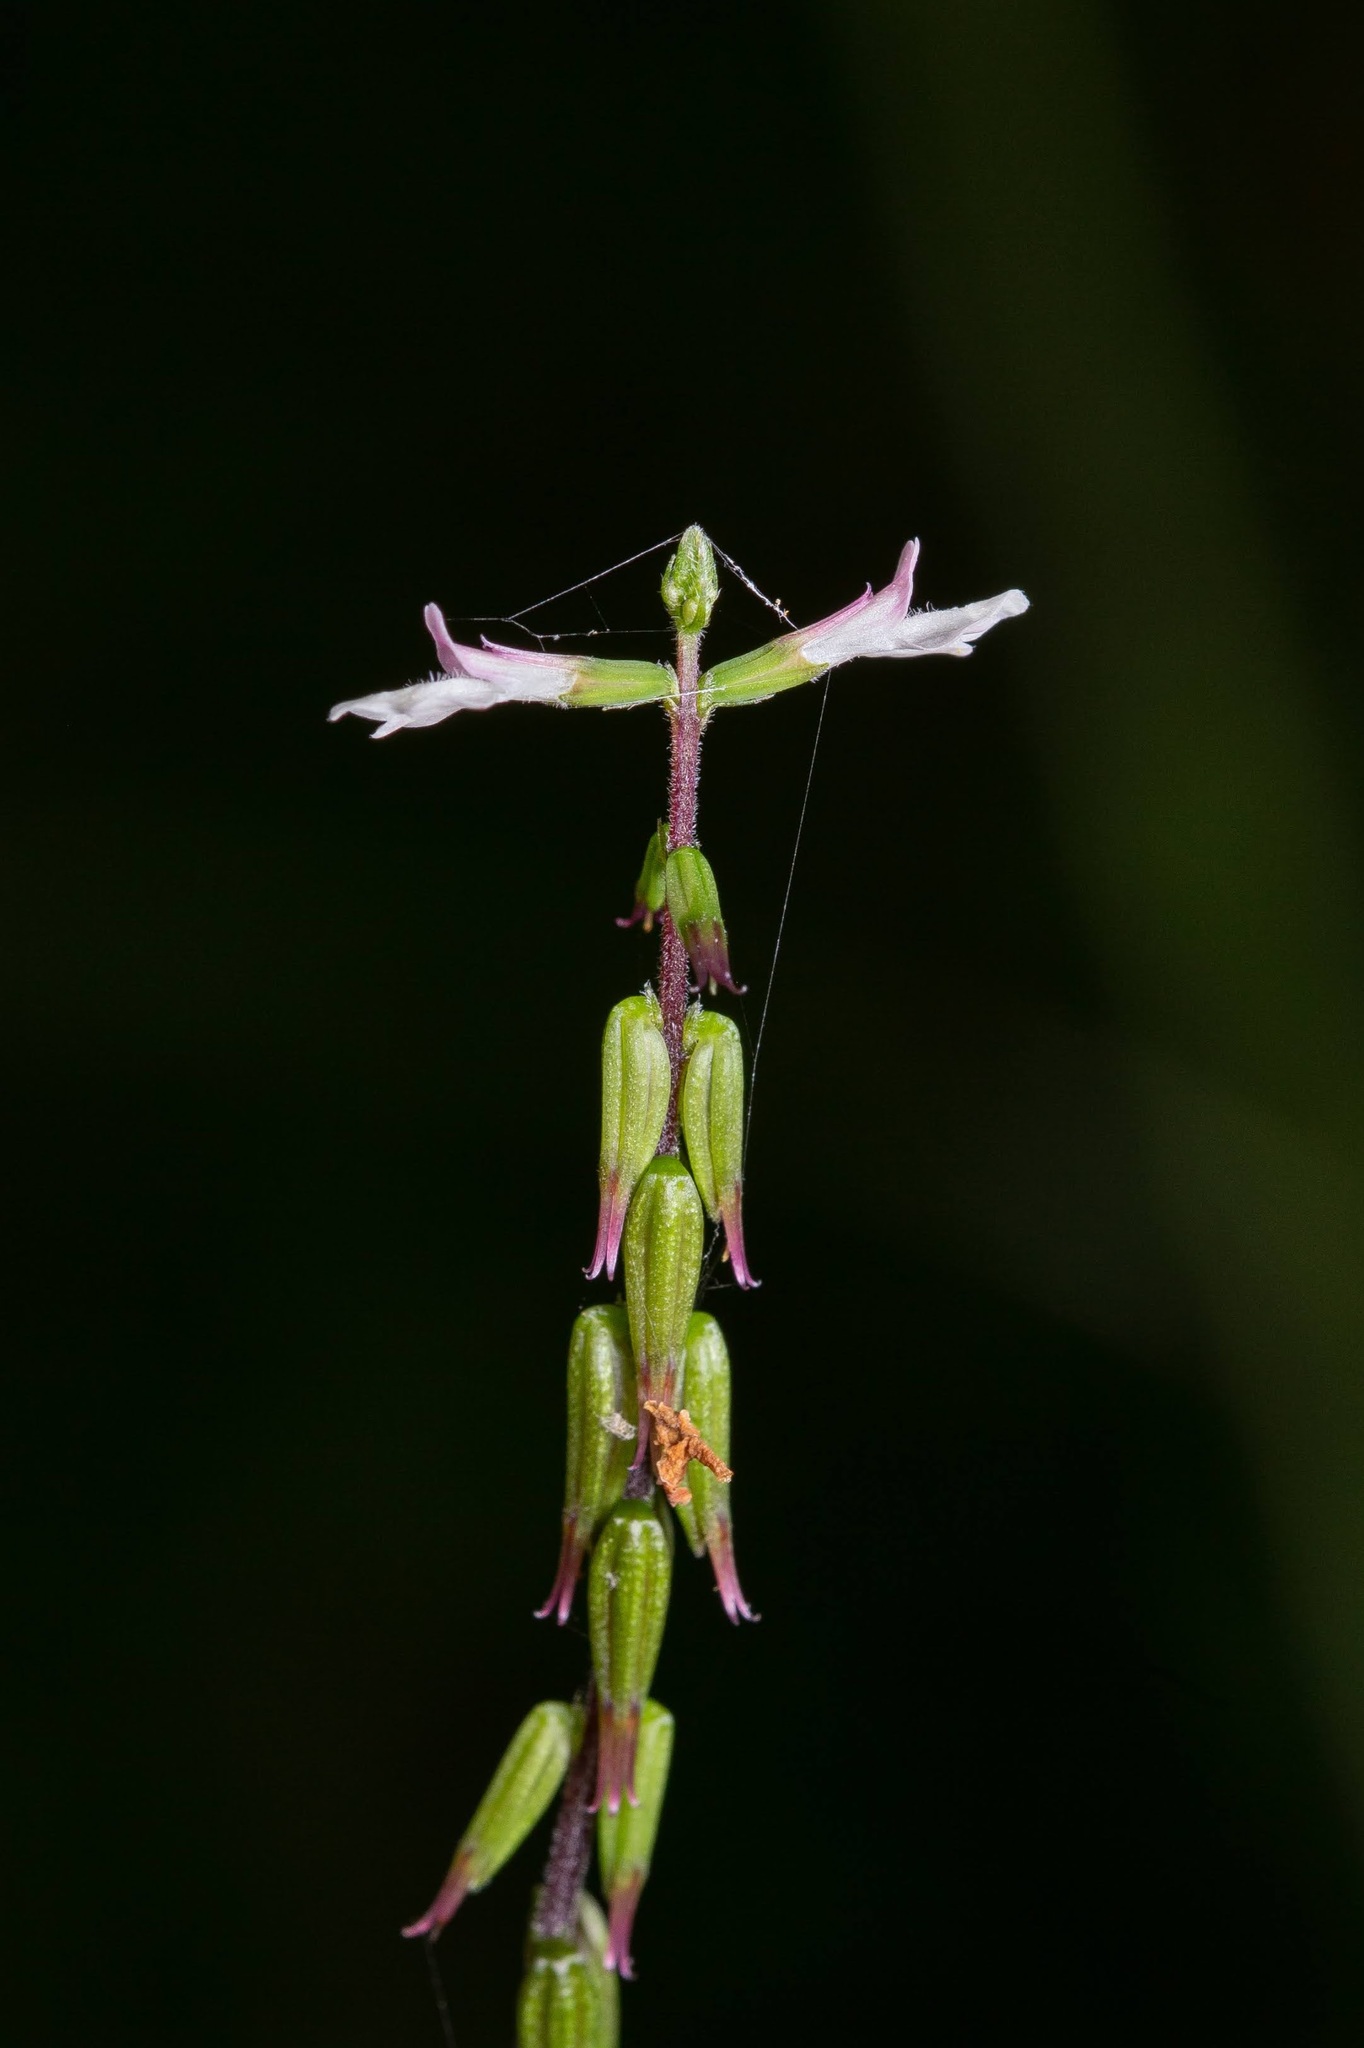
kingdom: Plantae
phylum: Tracheophyta
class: Magnoliopsida
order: Lamiales
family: Phrymaceae
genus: Phryma
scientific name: Phryma leptostachya
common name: American lopseed
